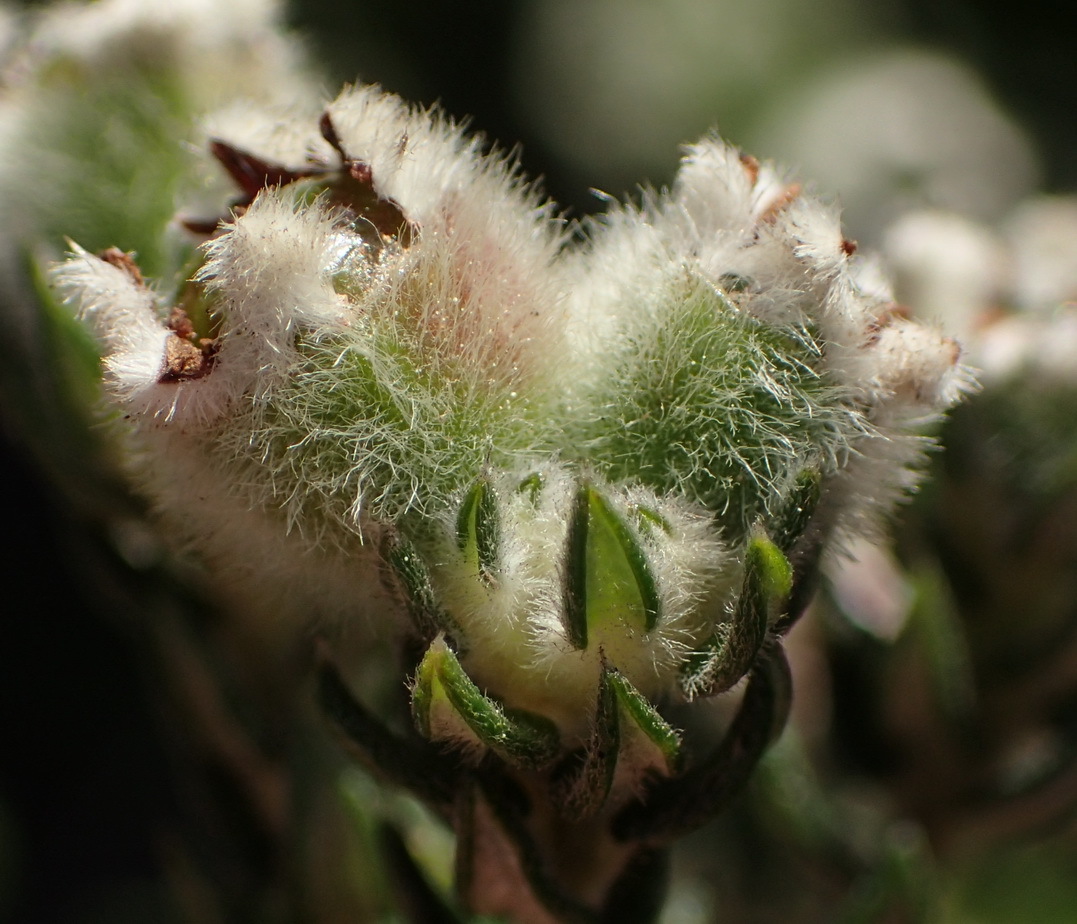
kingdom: Plantae
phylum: Tracheophyta
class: Magnoliopsida
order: Rosales
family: Rhamnaceae
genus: Phylica
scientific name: Phylica purpurea
